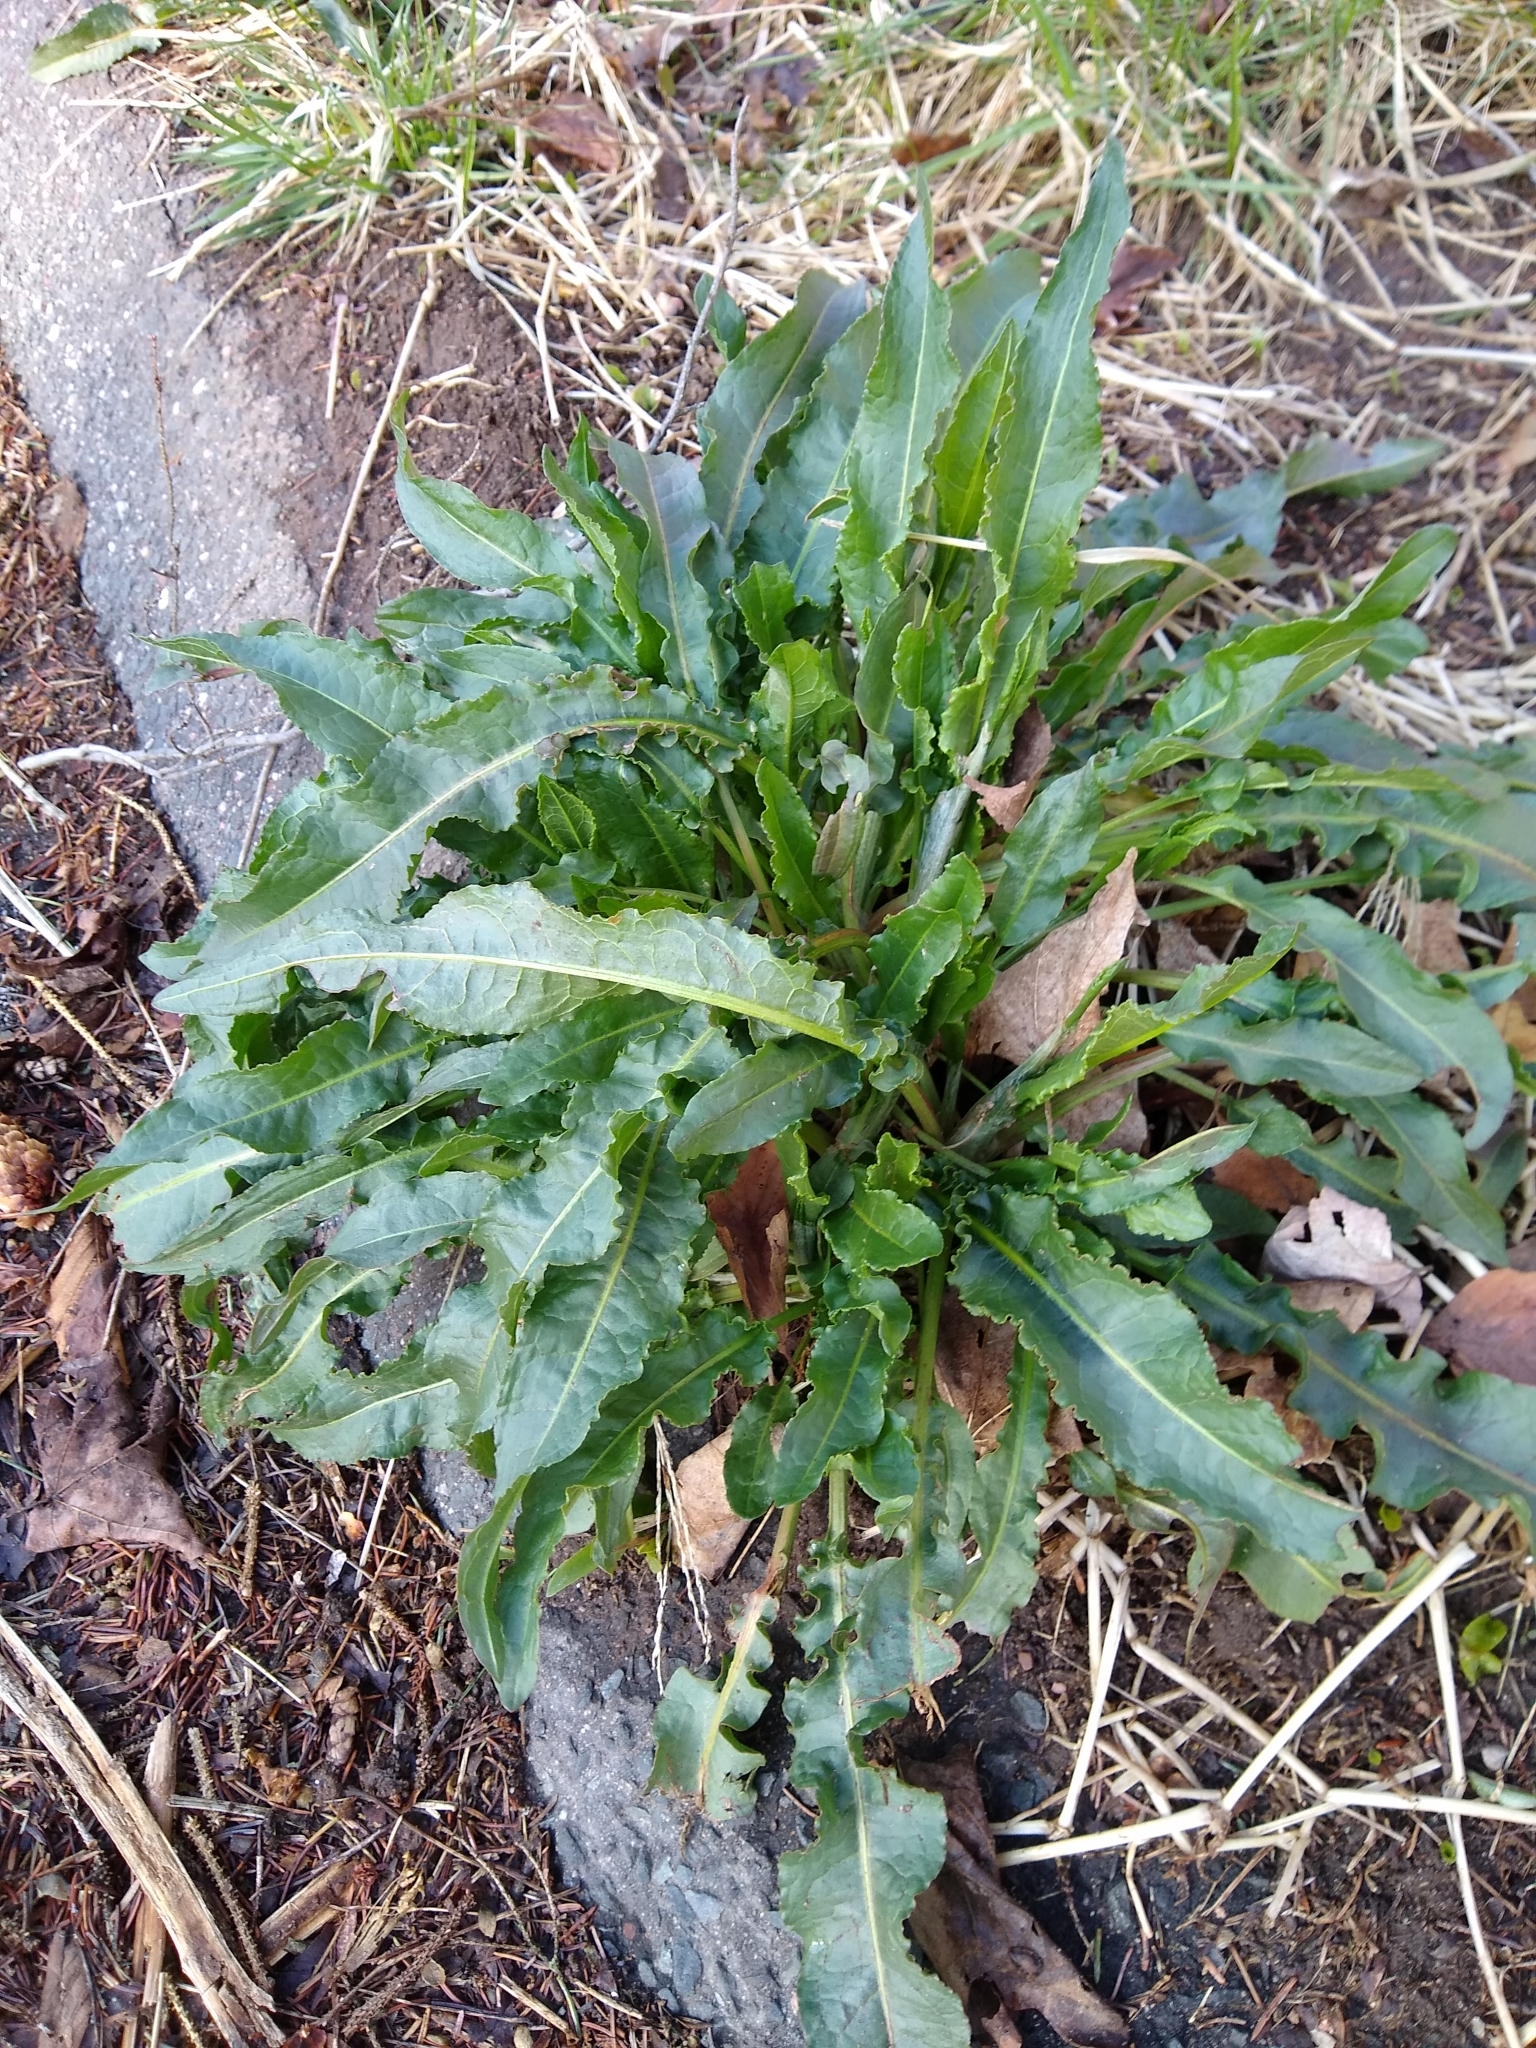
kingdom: Plantae
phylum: Tracheophyta
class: Magnoliopsida
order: Caryophyllales
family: Polygonaceae
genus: Rumex
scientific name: Rumex crispus
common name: Curled dock
